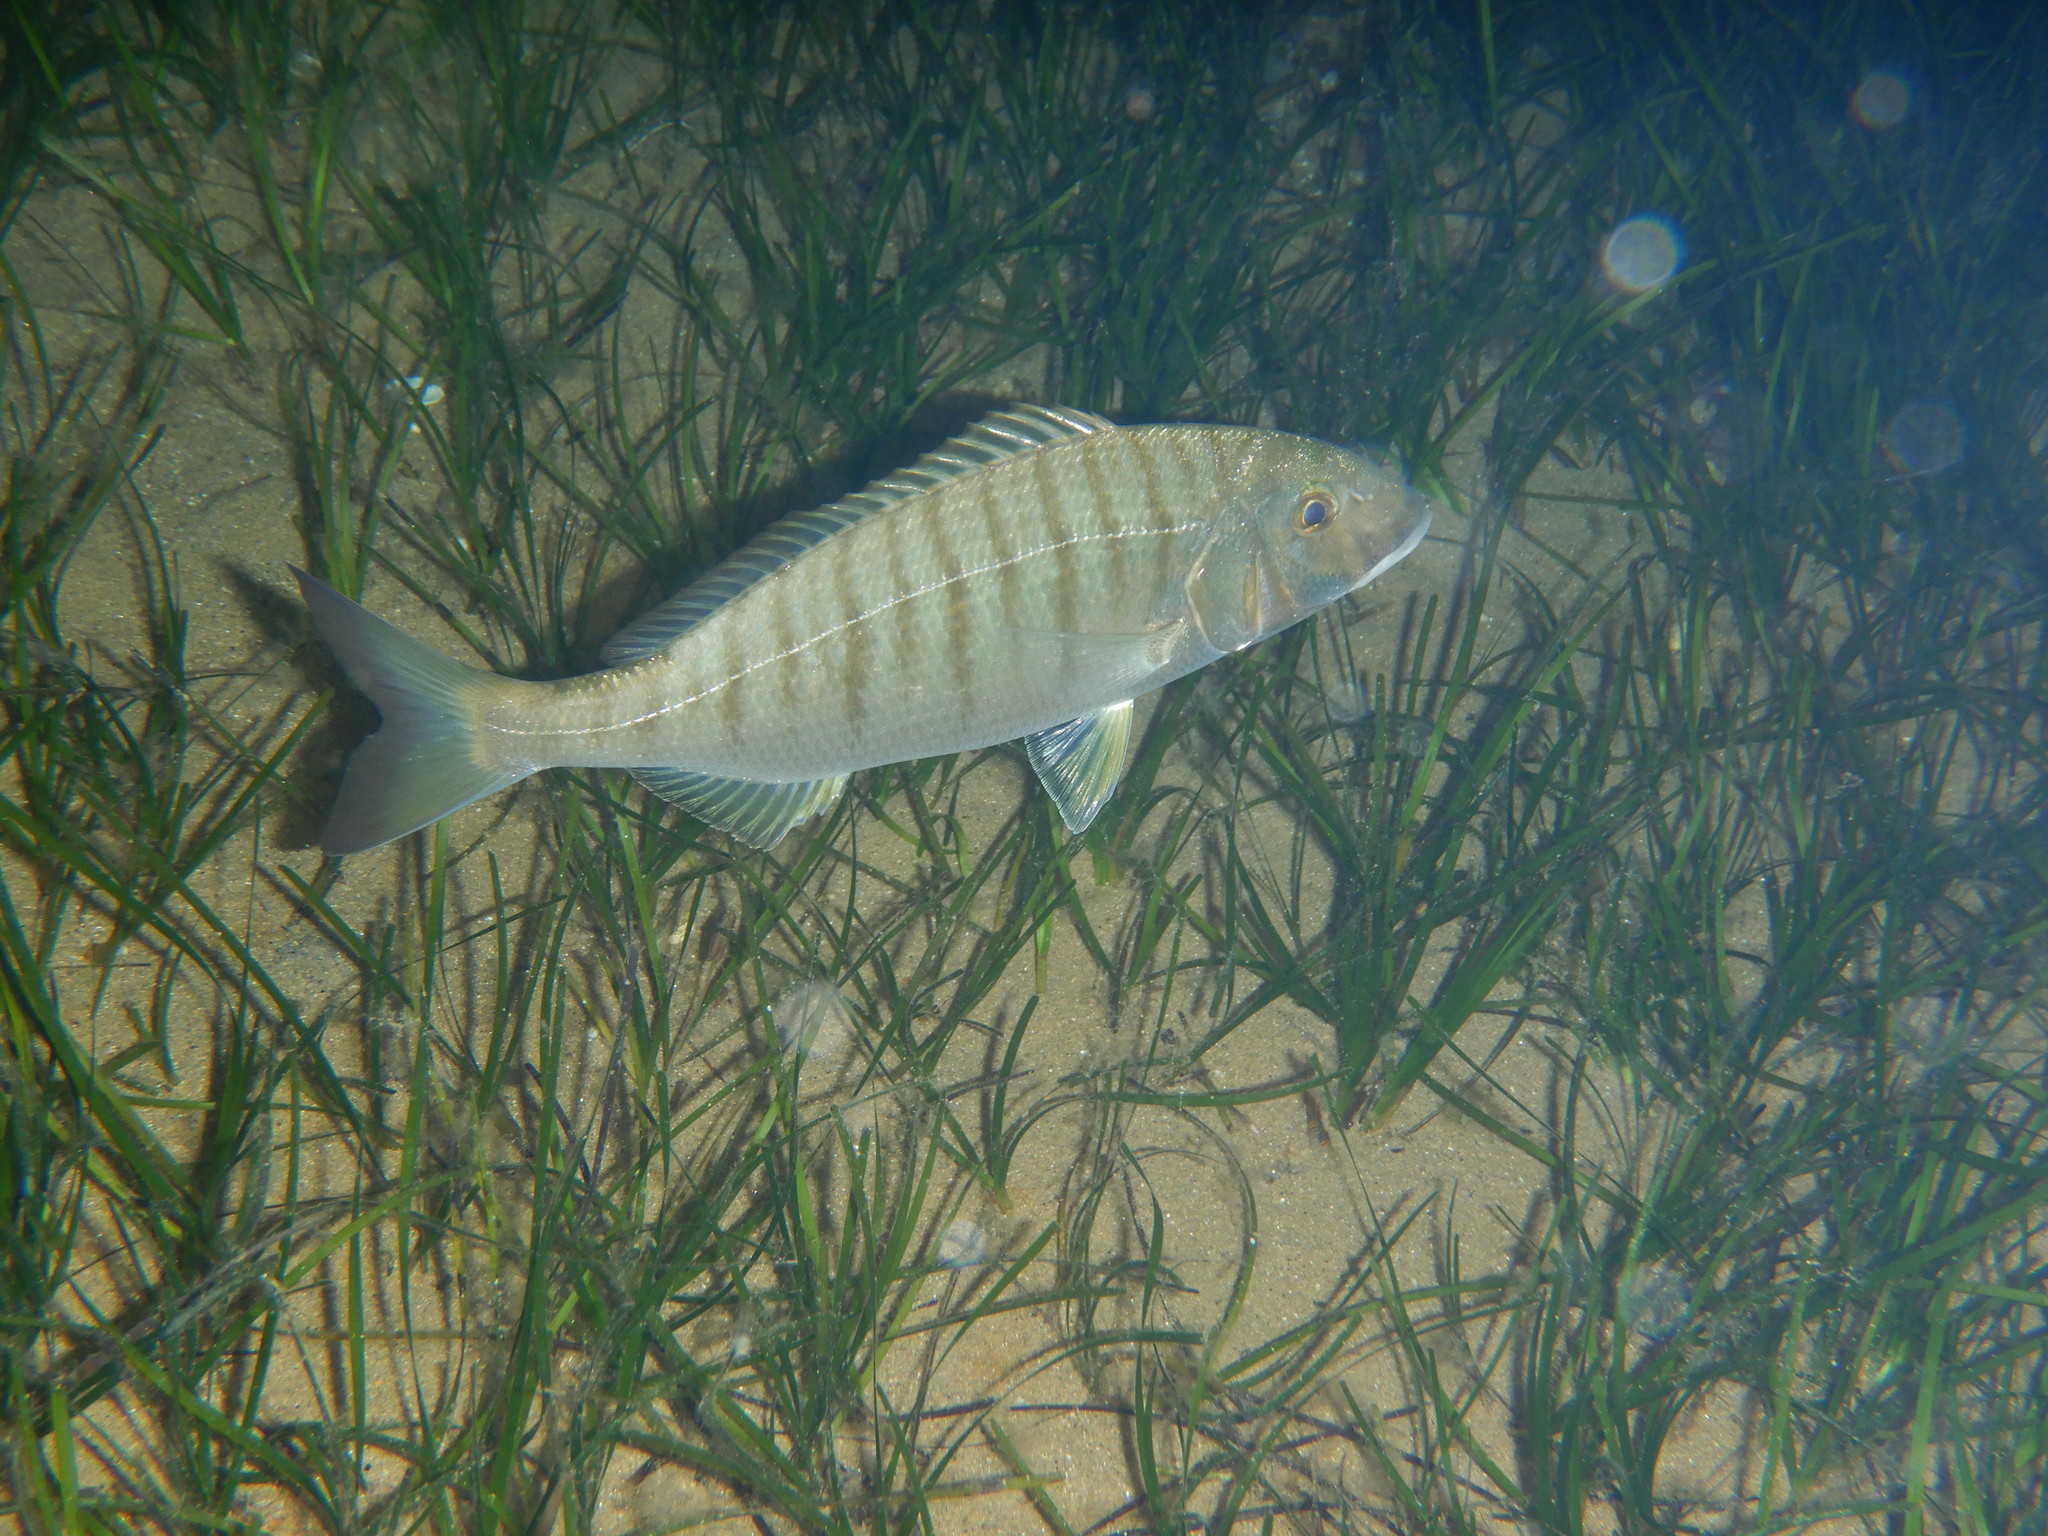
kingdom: Animalia
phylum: Chordata
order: Perciformes
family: Sparidae
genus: Lithognathus
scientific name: Lithognathus mormyrus
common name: Sand steenbras
